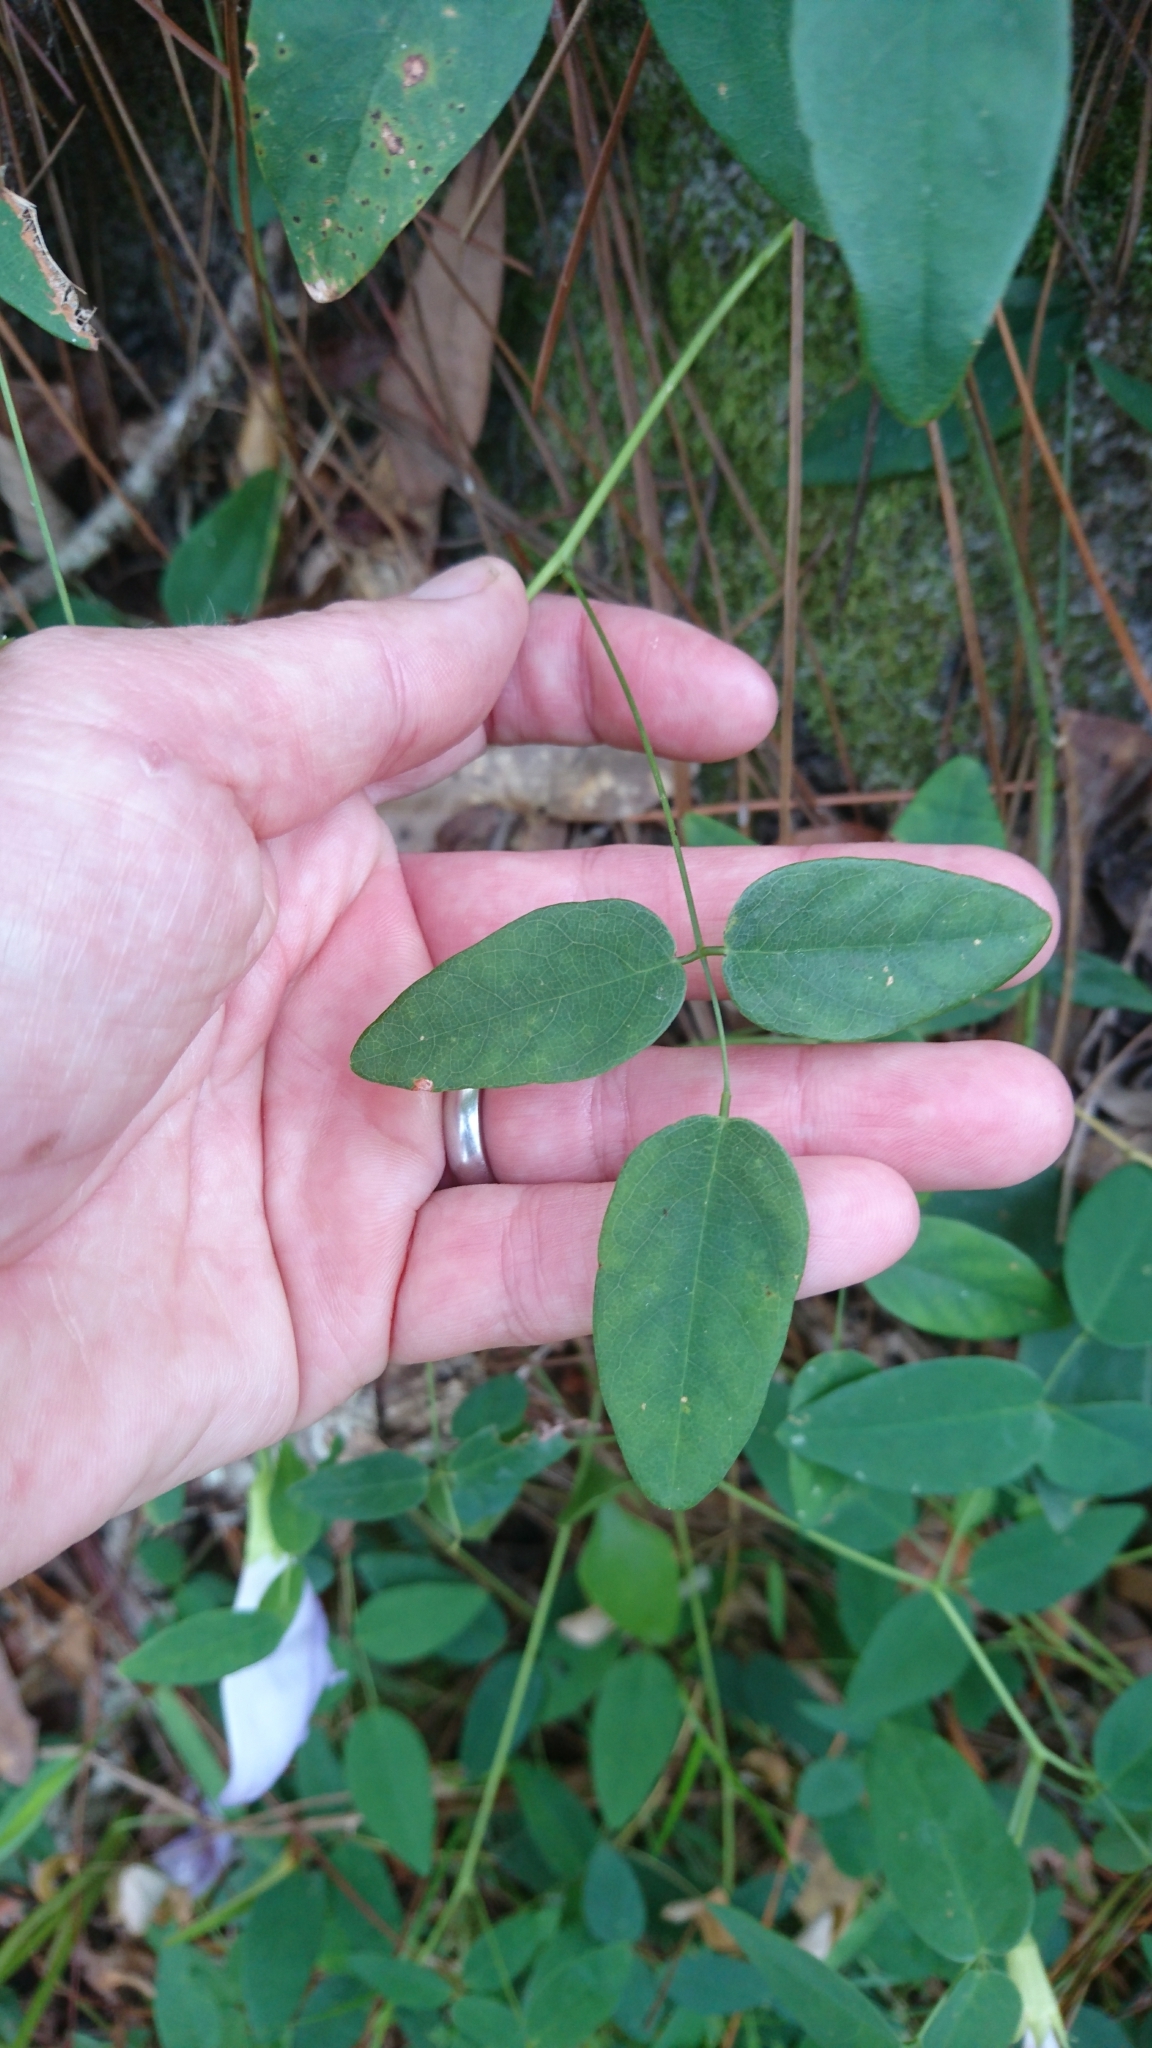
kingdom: Plantae
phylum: Tracheophyta
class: Magnoliopsida
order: Fabales
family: Fabaceae
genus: Clitoria
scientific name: Clitoria mariana
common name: Butterfly-pea
